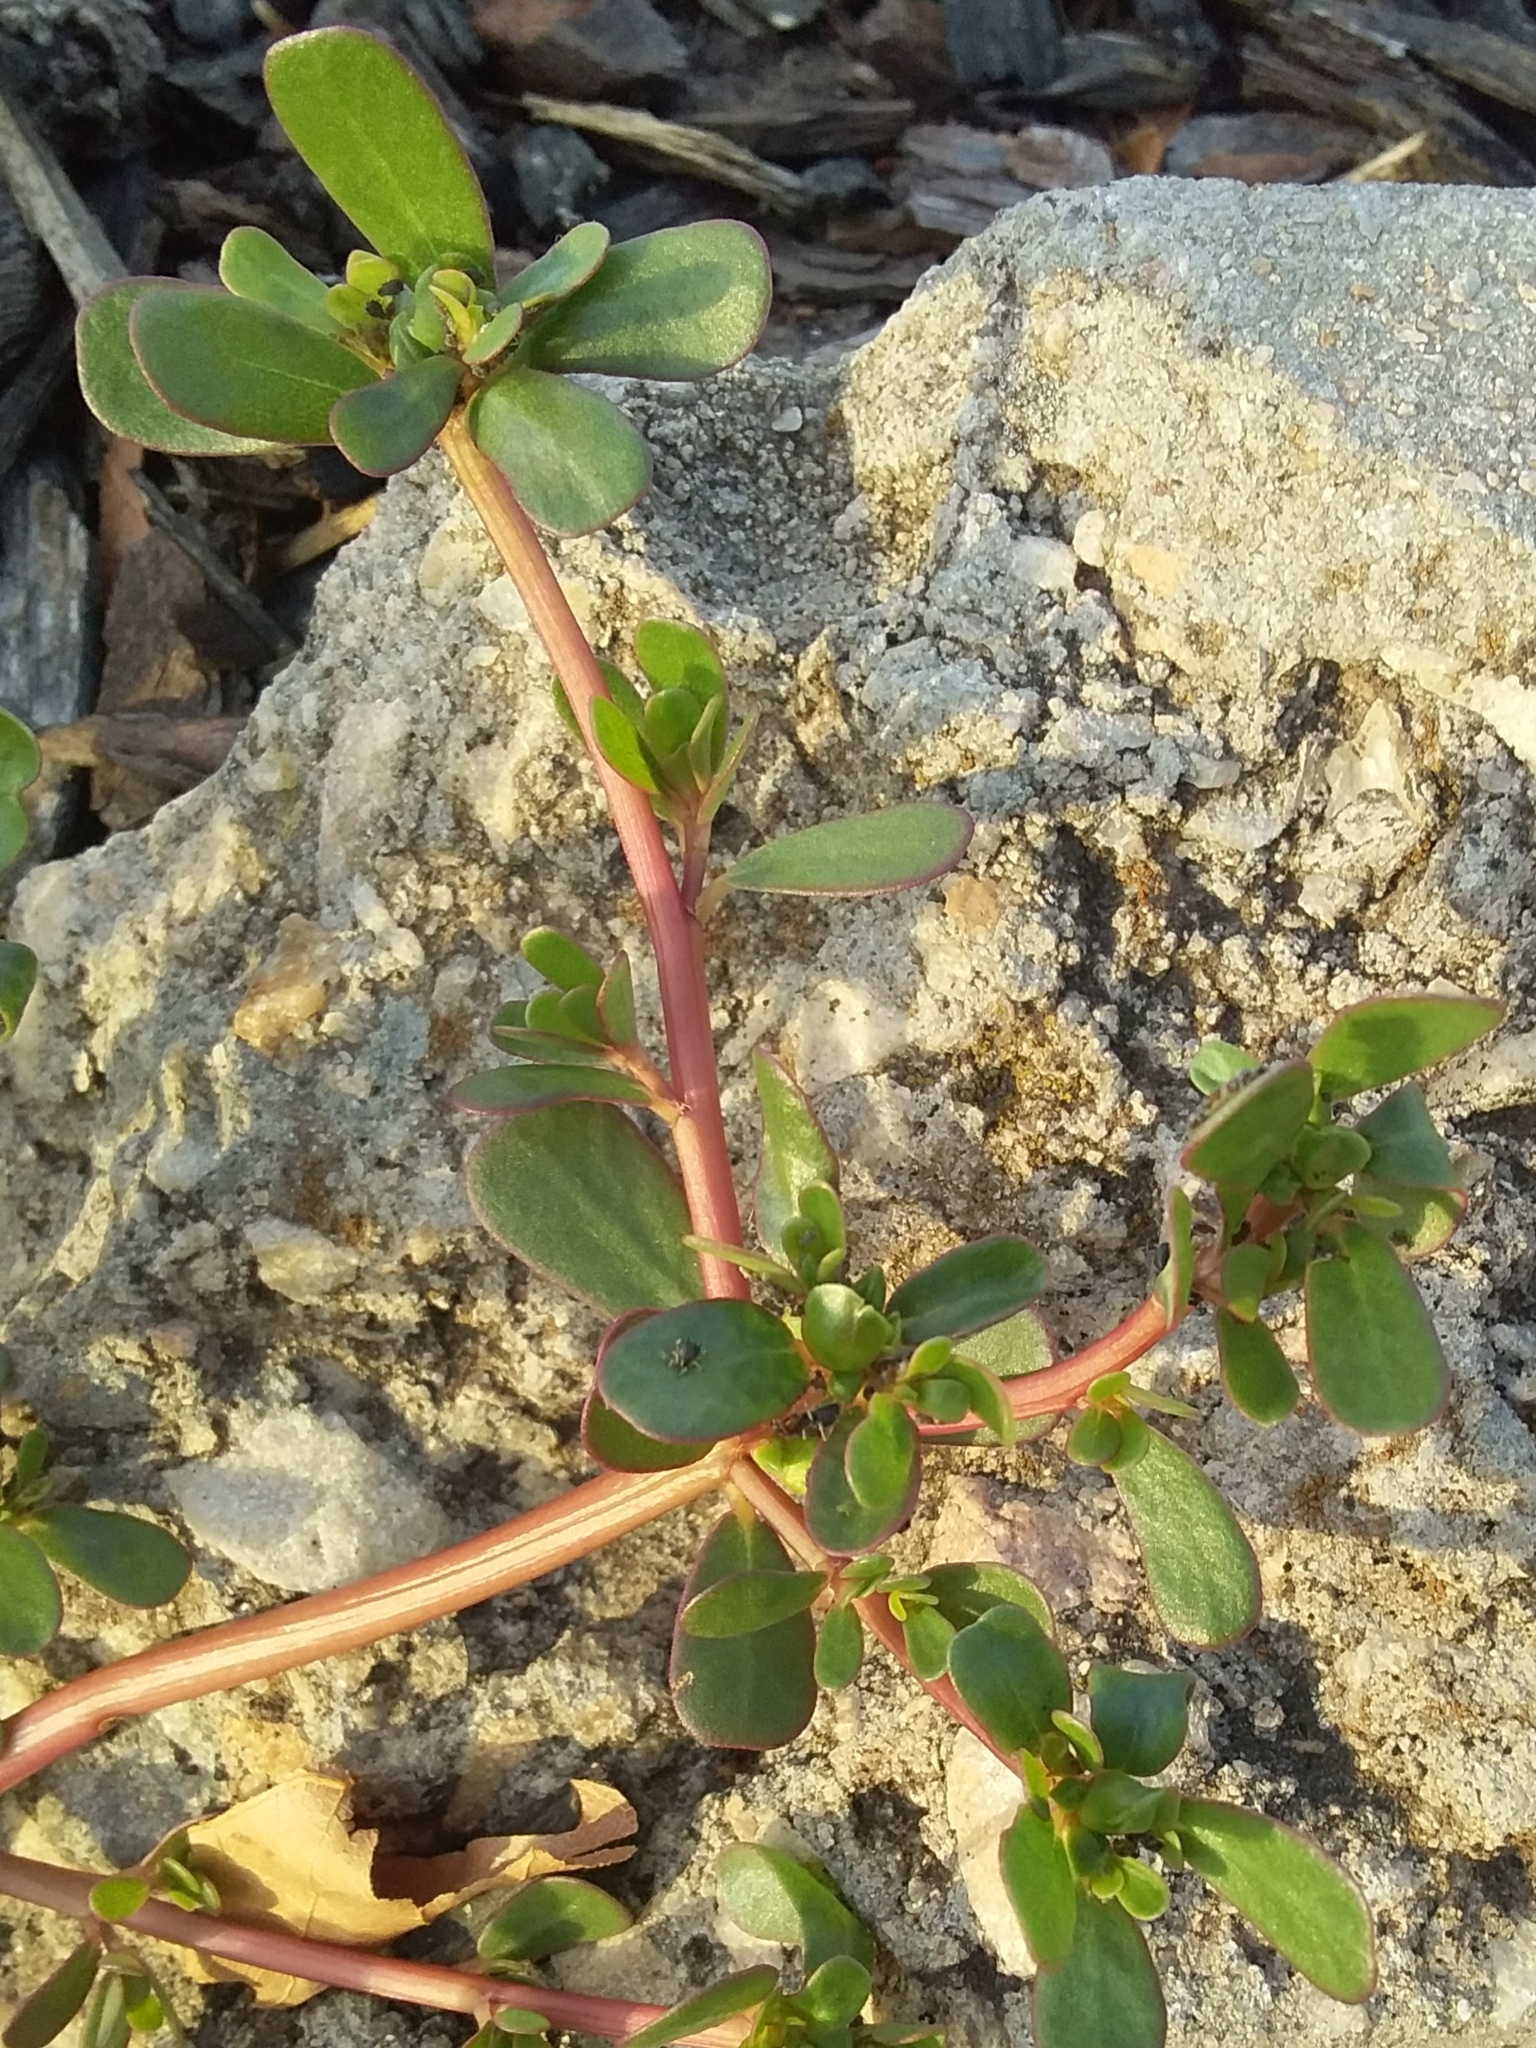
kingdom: Plantae
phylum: Tracheophyta
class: Magnoliopsida
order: Caryophyllales
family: Portulacaceae
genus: Portulaca
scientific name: Portulaca oleracea
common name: Common purslane
